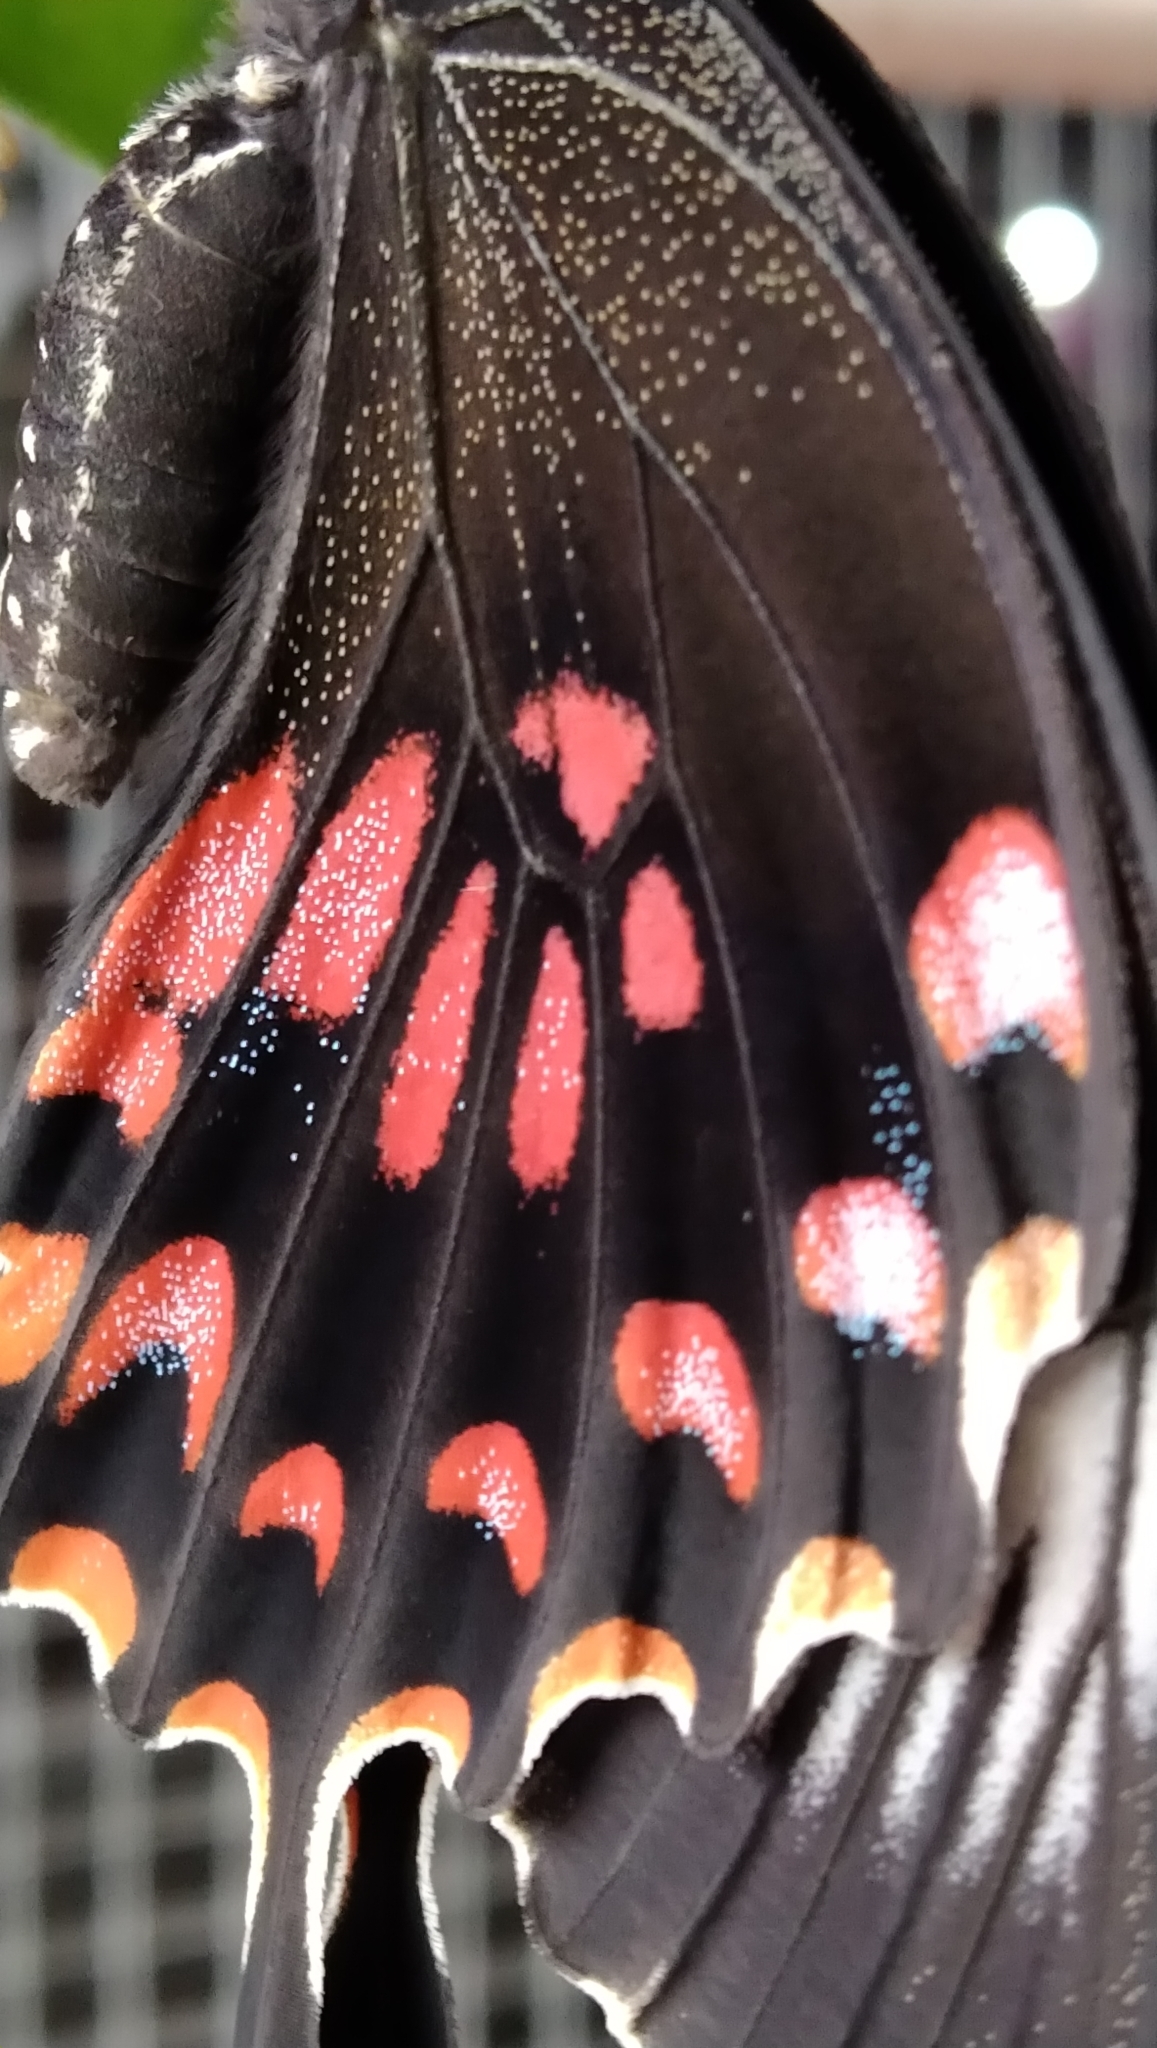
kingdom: Animalia
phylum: Arthropoda
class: Insecta
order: Lepidoptera
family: Papilionidae
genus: Papilio
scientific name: Papilio polytes
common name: Common mormon
